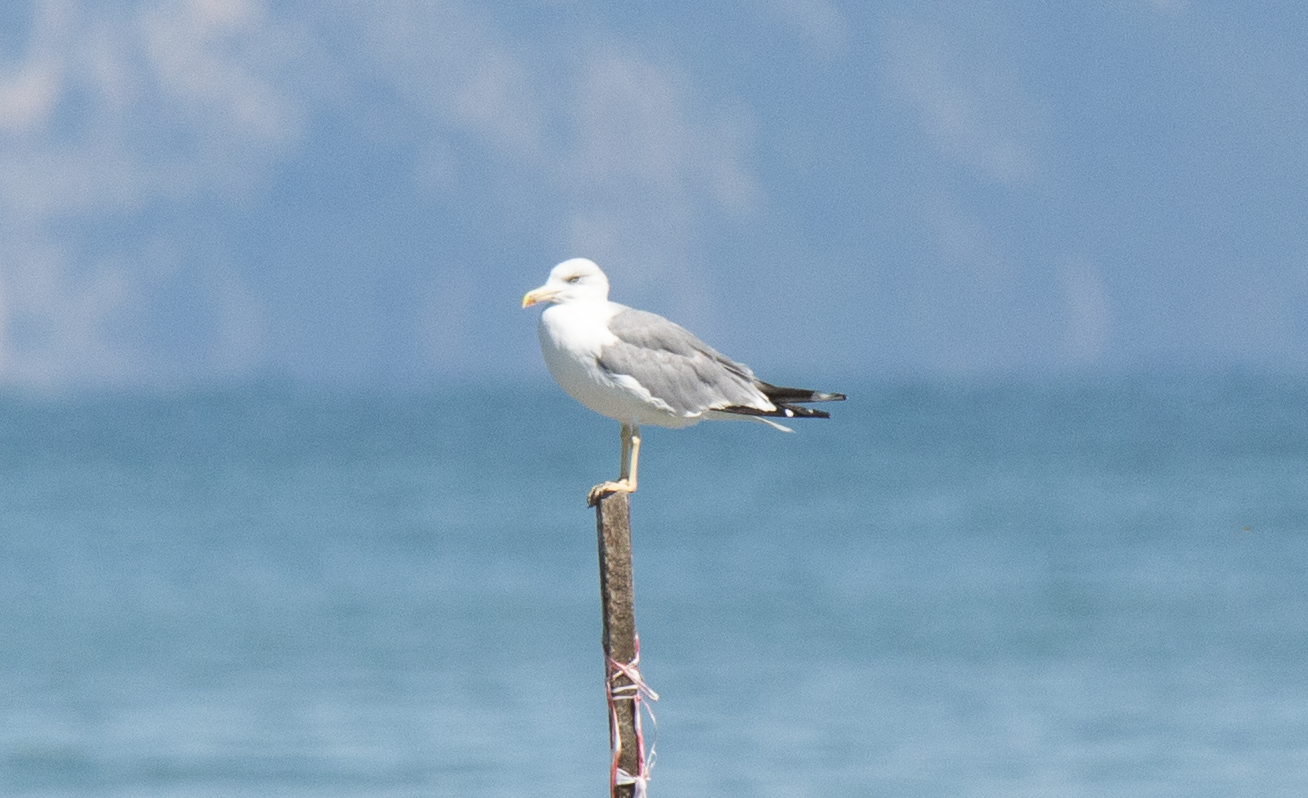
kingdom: Animalia
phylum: Chordata
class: Aves
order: Charadriiformes
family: Laridae
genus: Larus
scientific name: Larus michahellis
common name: Yellow-legged gull
